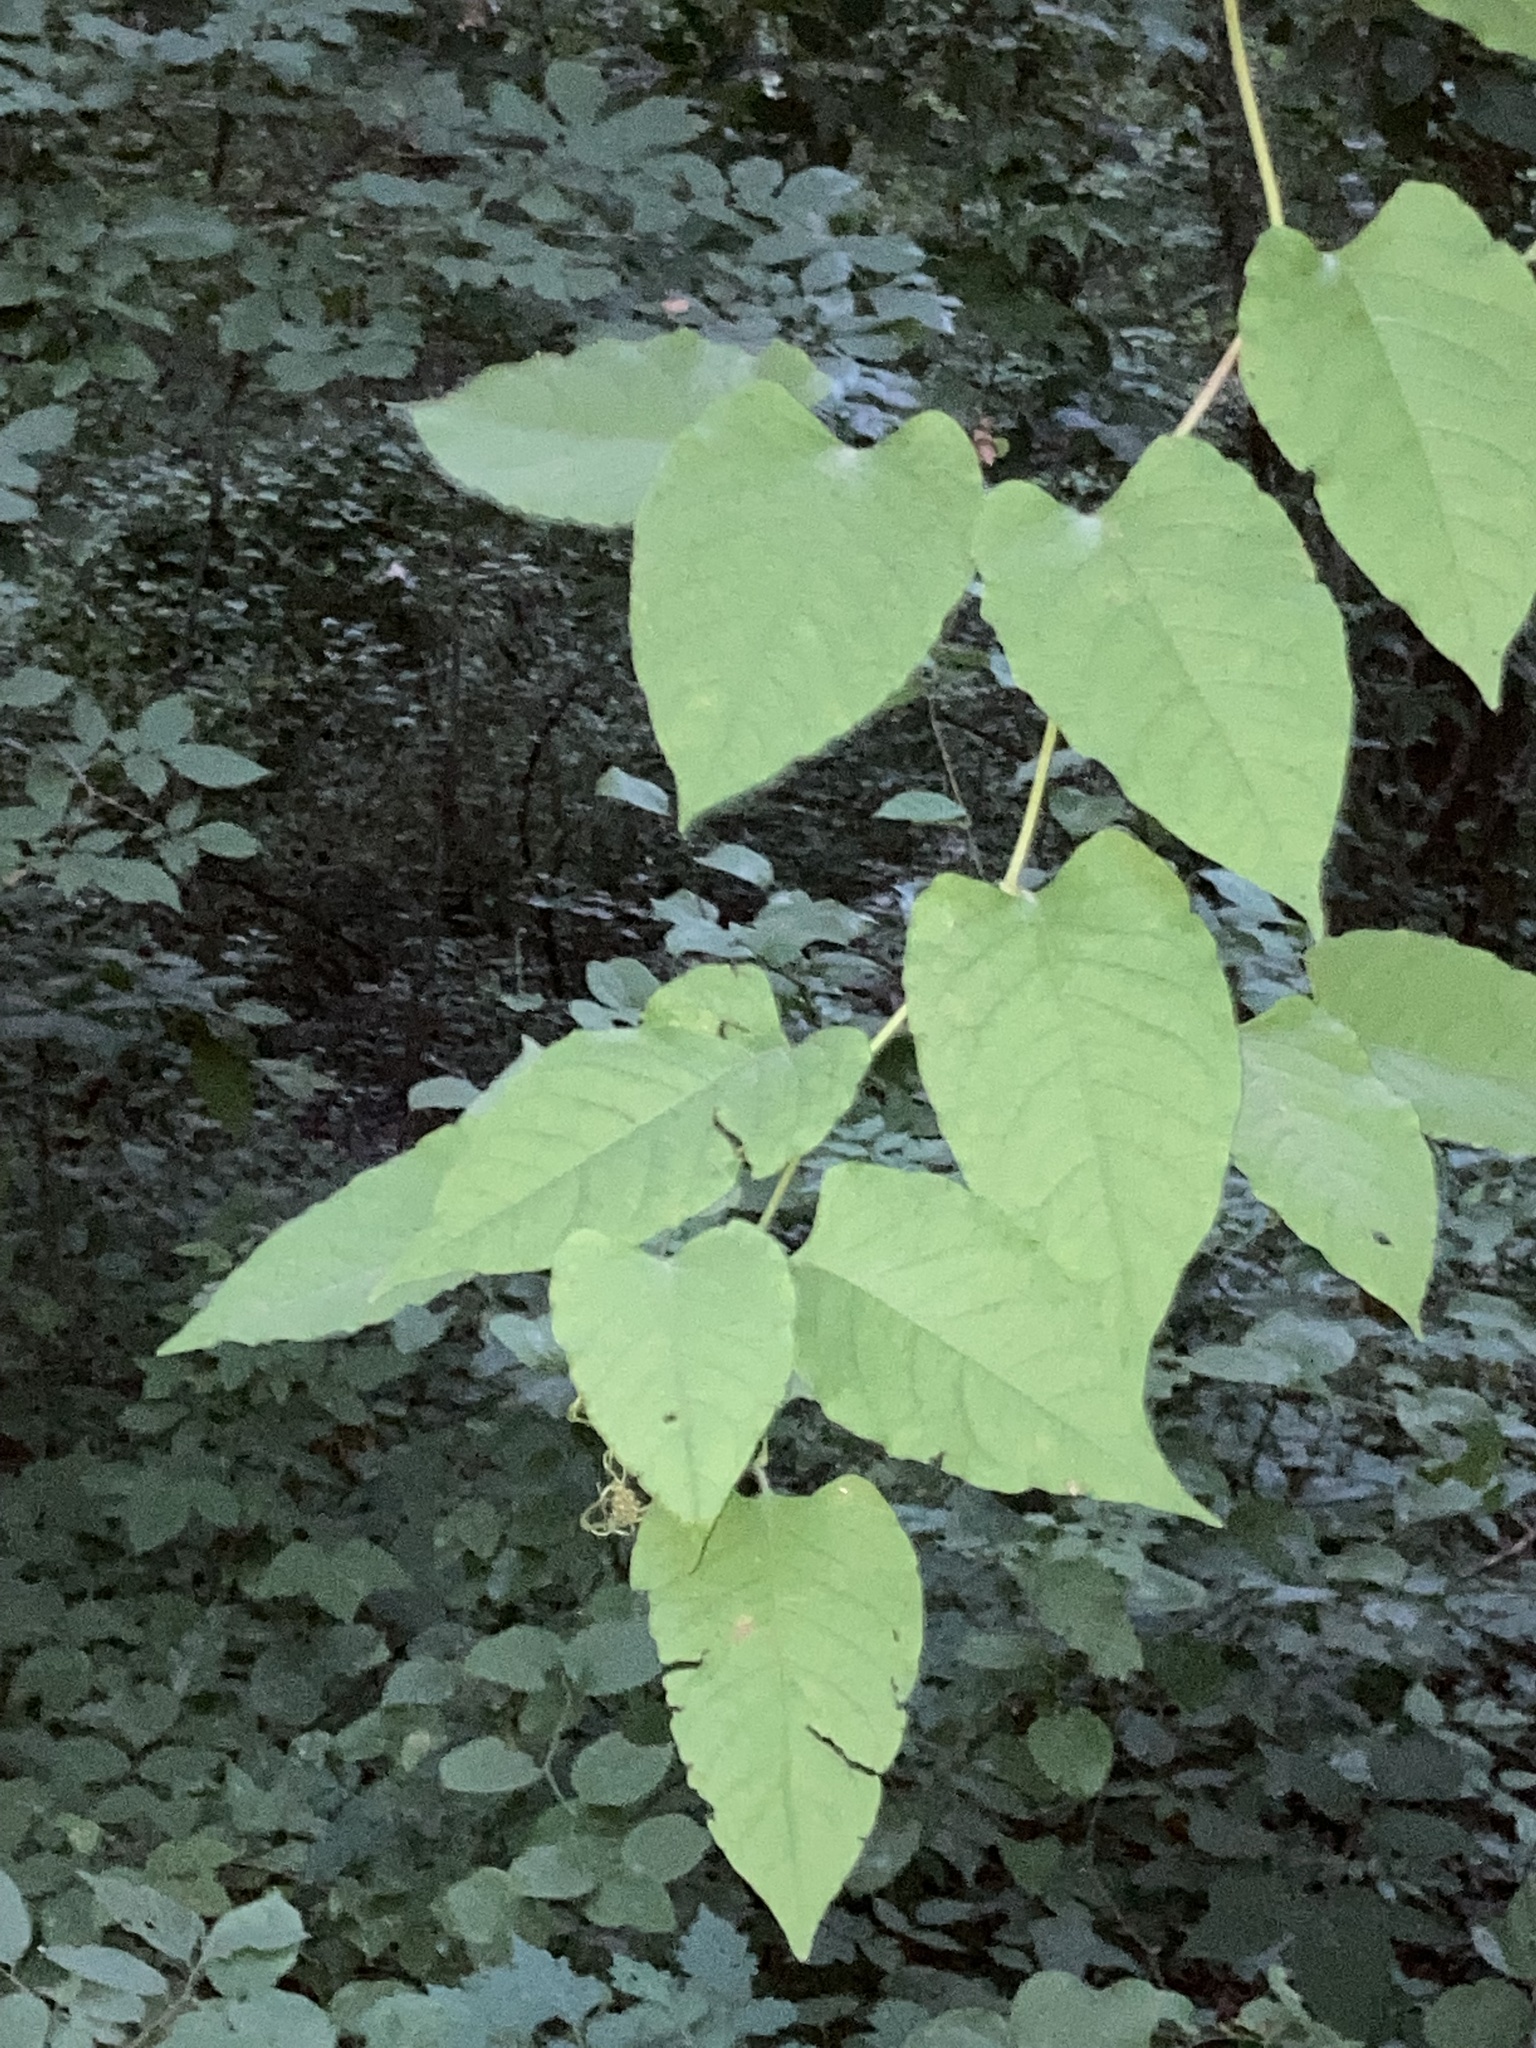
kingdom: Plantae
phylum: Tracheophyta
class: Magnoliopsida
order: Caryophyllales
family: Polygonaceae
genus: Brunnichia
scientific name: Brunnichia ovata
